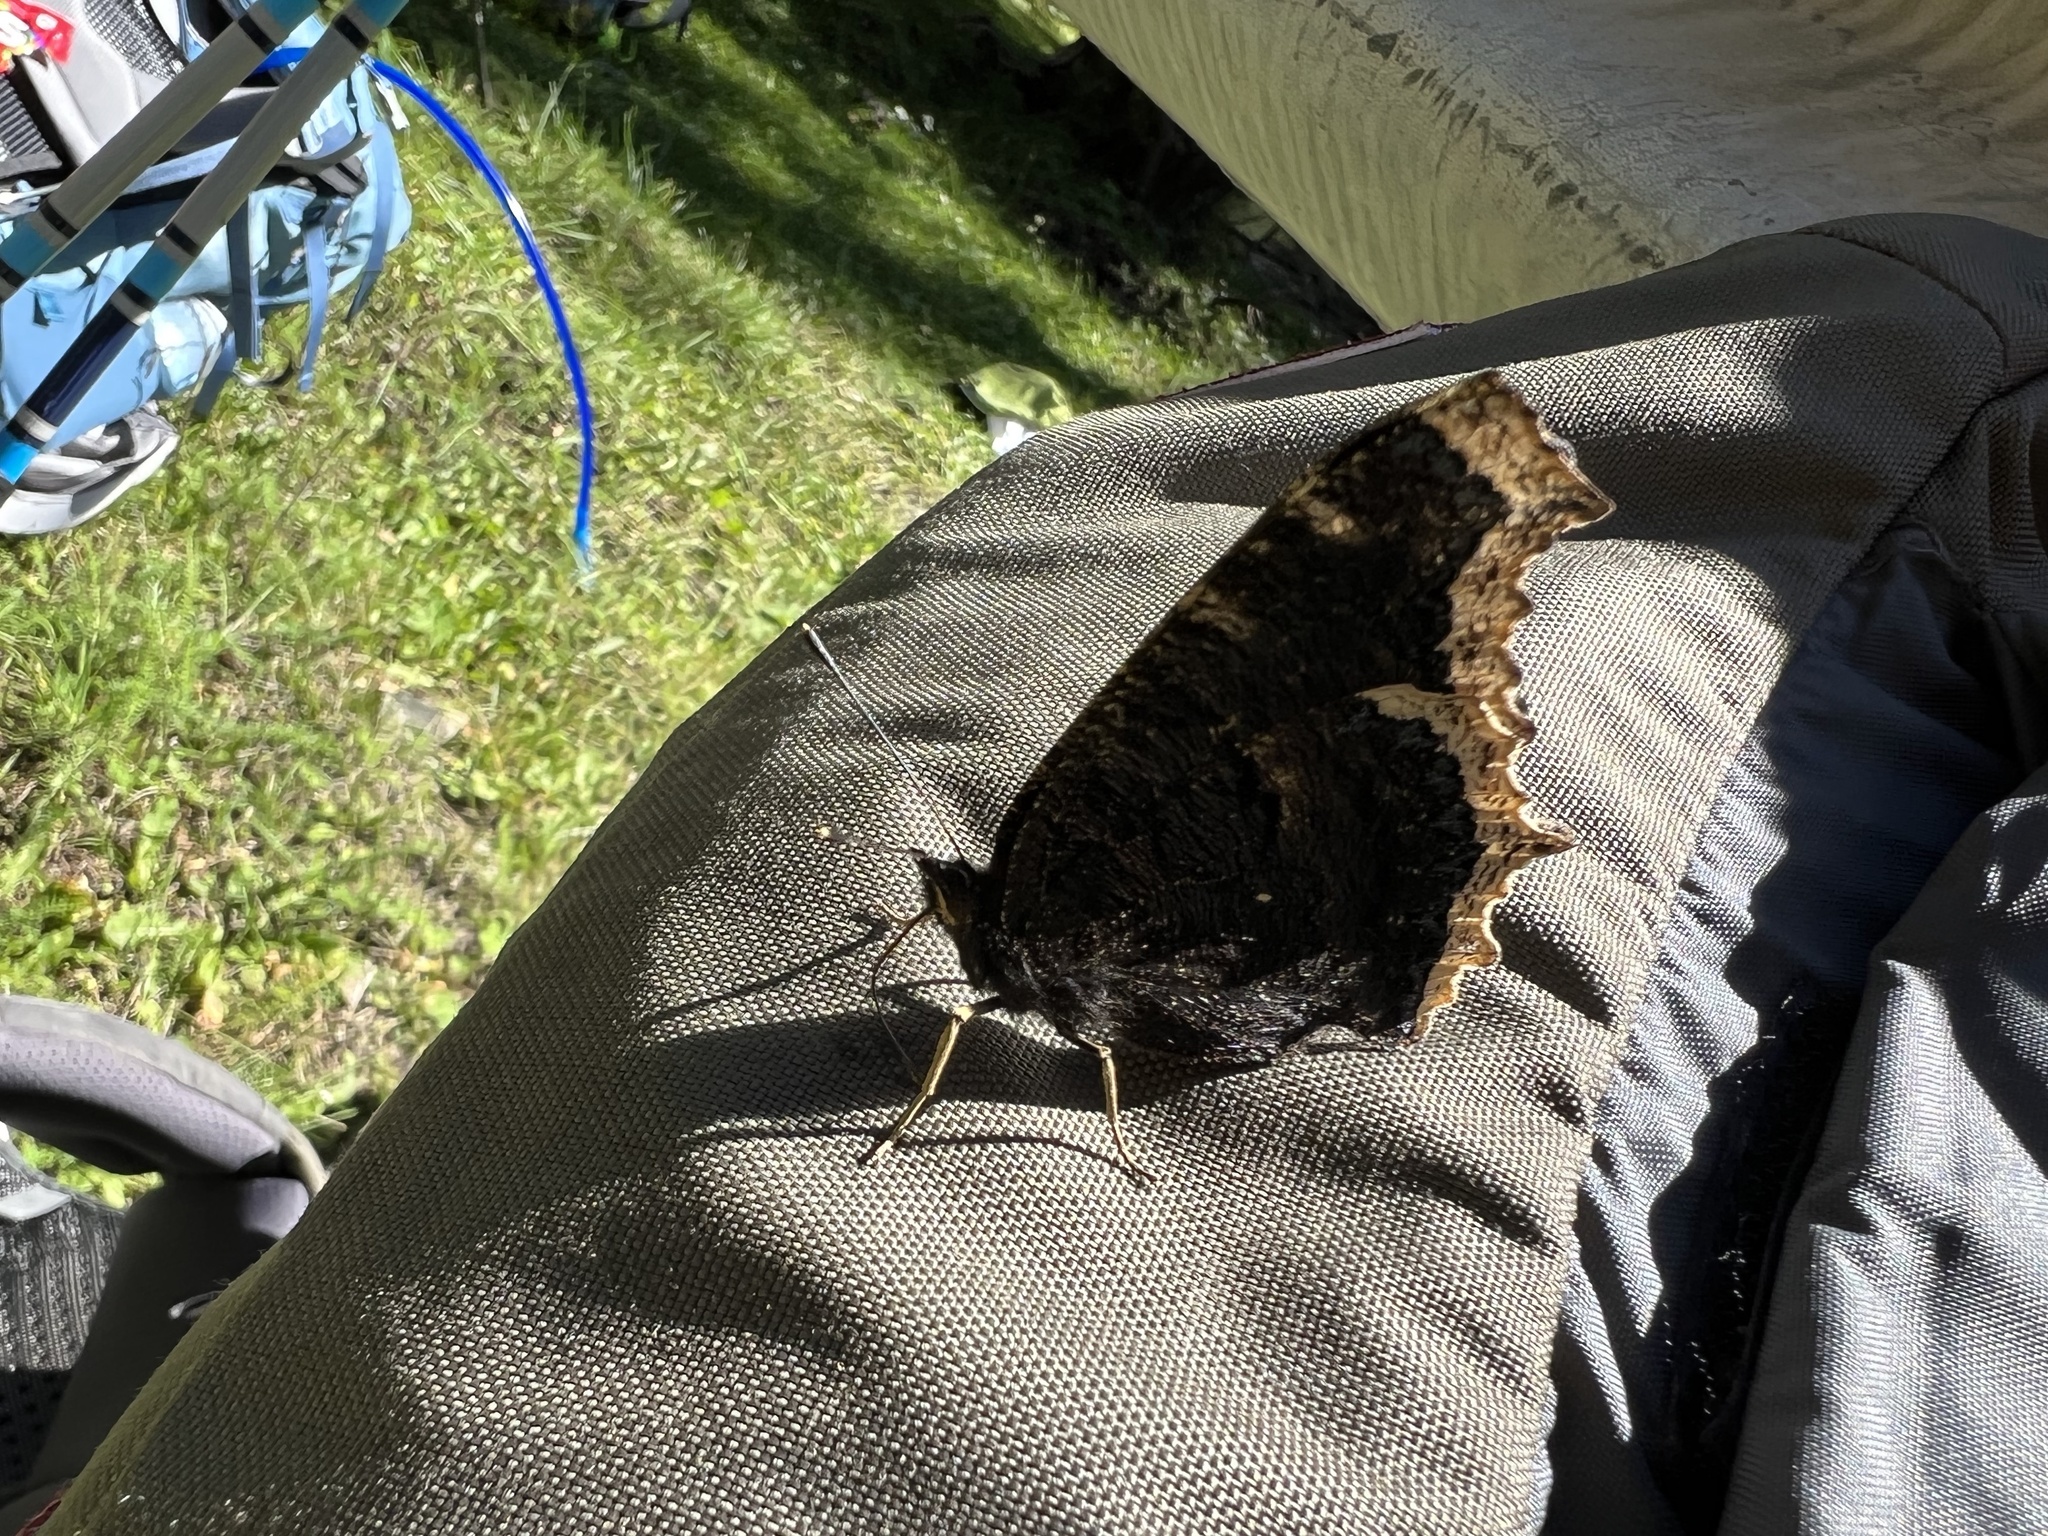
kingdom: Animalia
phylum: Arthropoda
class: Insecta
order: Lepidoptera
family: Nymphalidae
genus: Nymphalis
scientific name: Nymphalis antiopa
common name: Camberwell beauty
